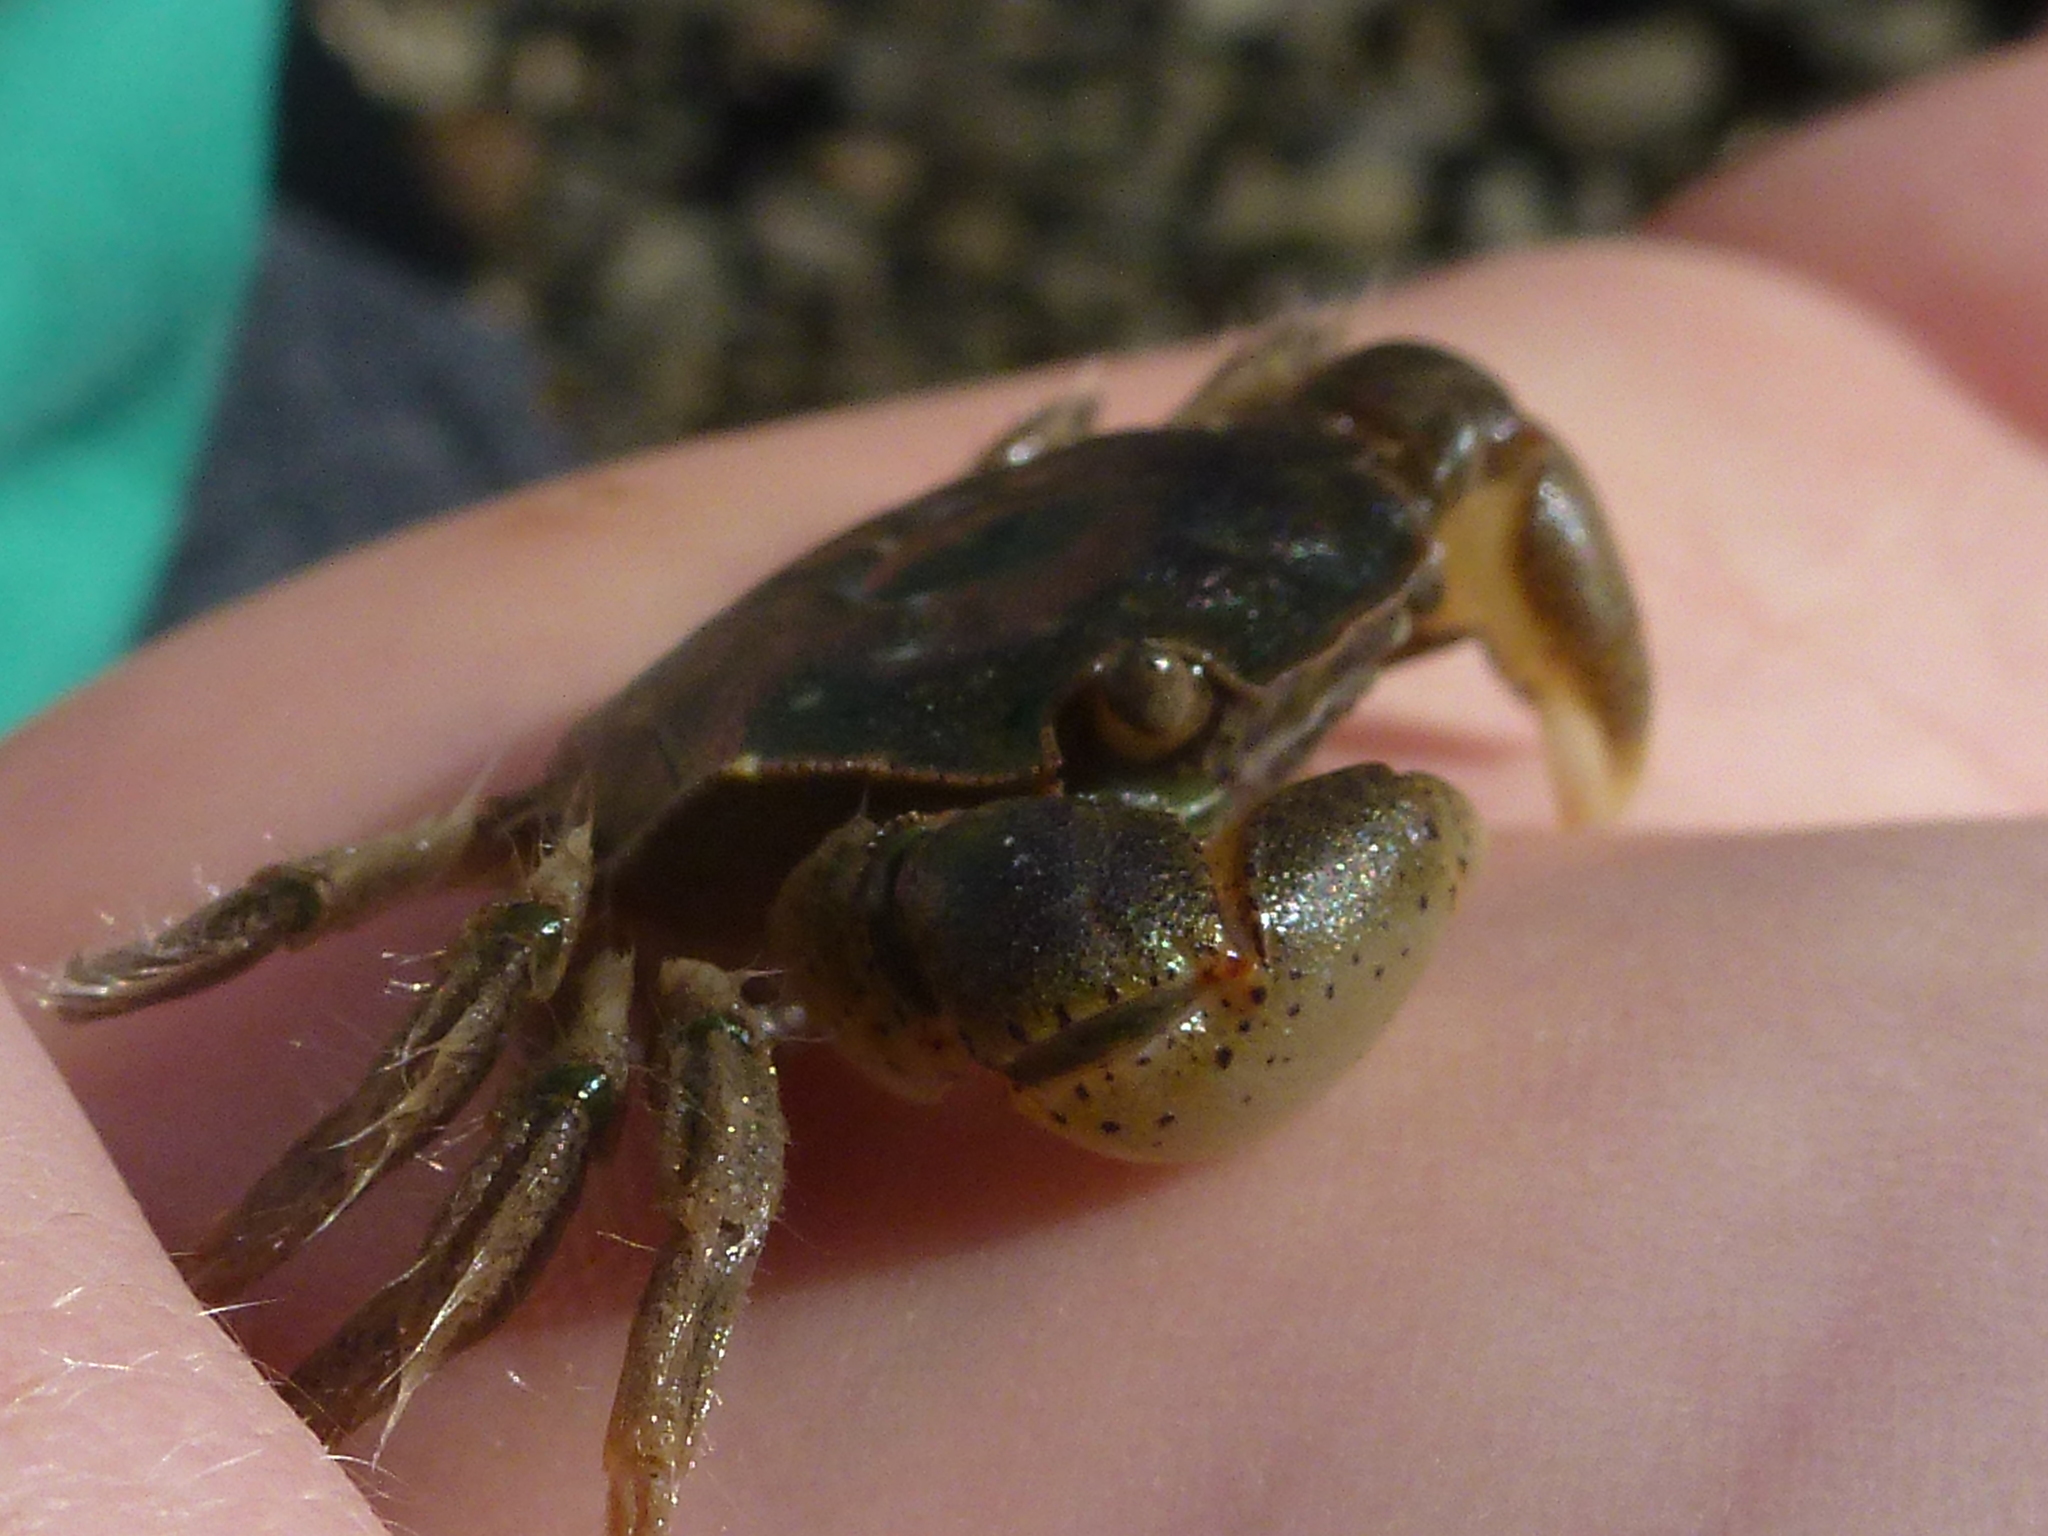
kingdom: Animalia
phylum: Arthropoda
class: Malacostraca
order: Decapoda
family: Varunidae
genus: Hemigrapsus
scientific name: Hemigrapsus crenulatus
